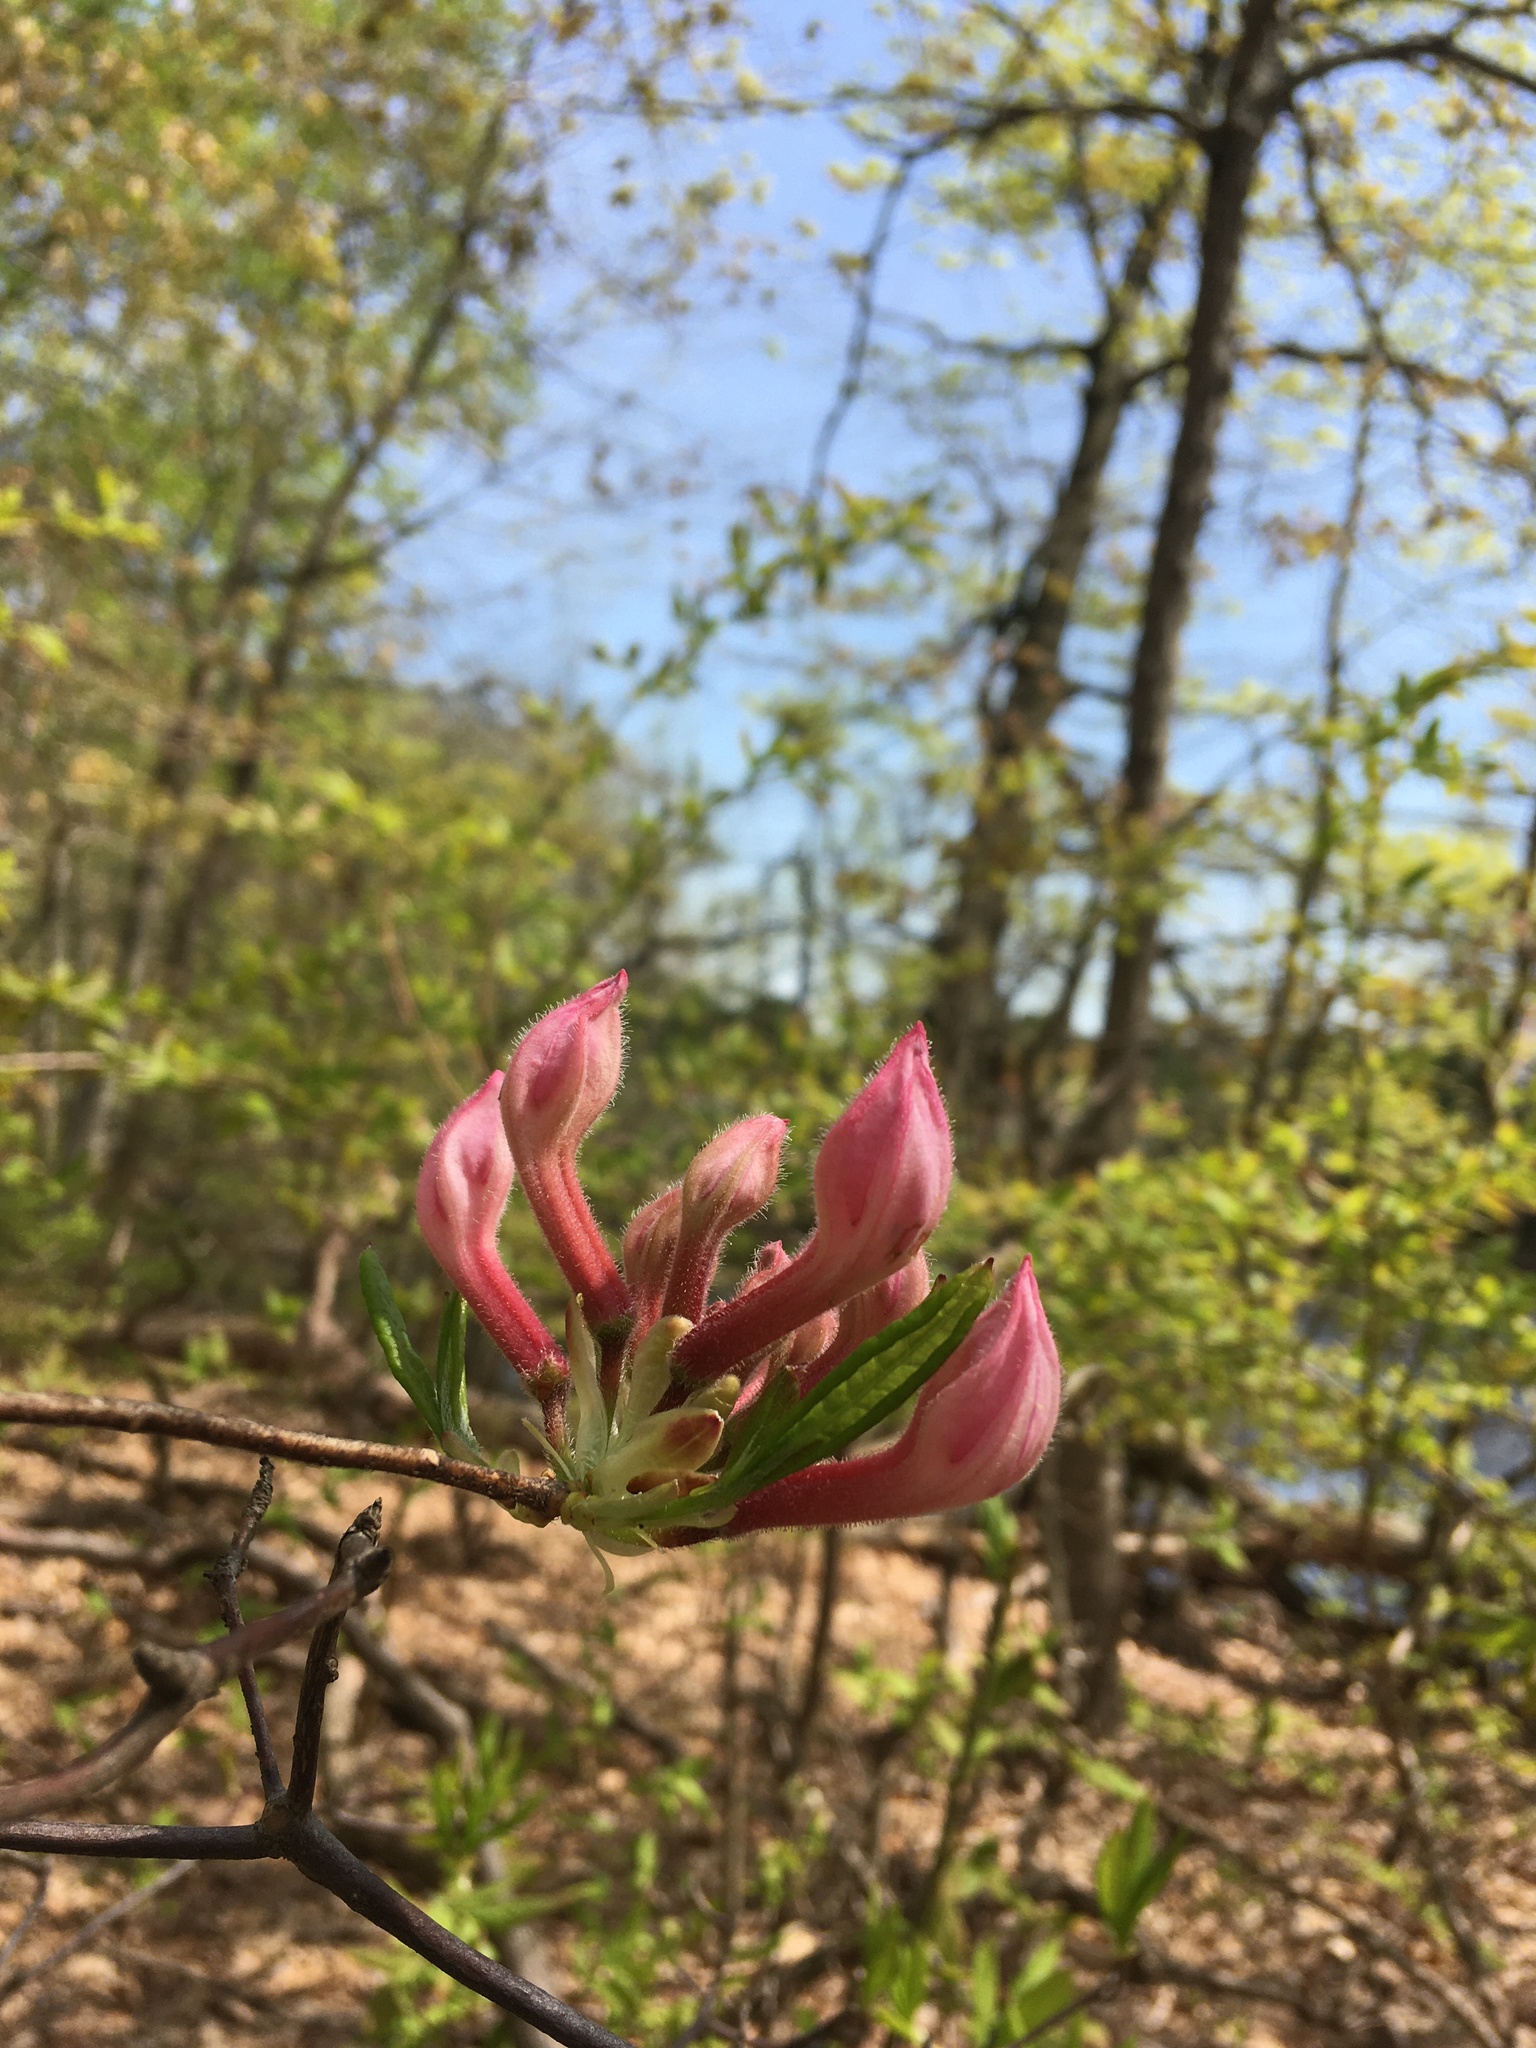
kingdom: Plantae
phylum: Tracheophyta
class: Magnoliopsida
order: Ericales
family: Ericaceae
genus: Rhododendron
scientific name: Rhododendron periclymenoides
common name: Election-pink
